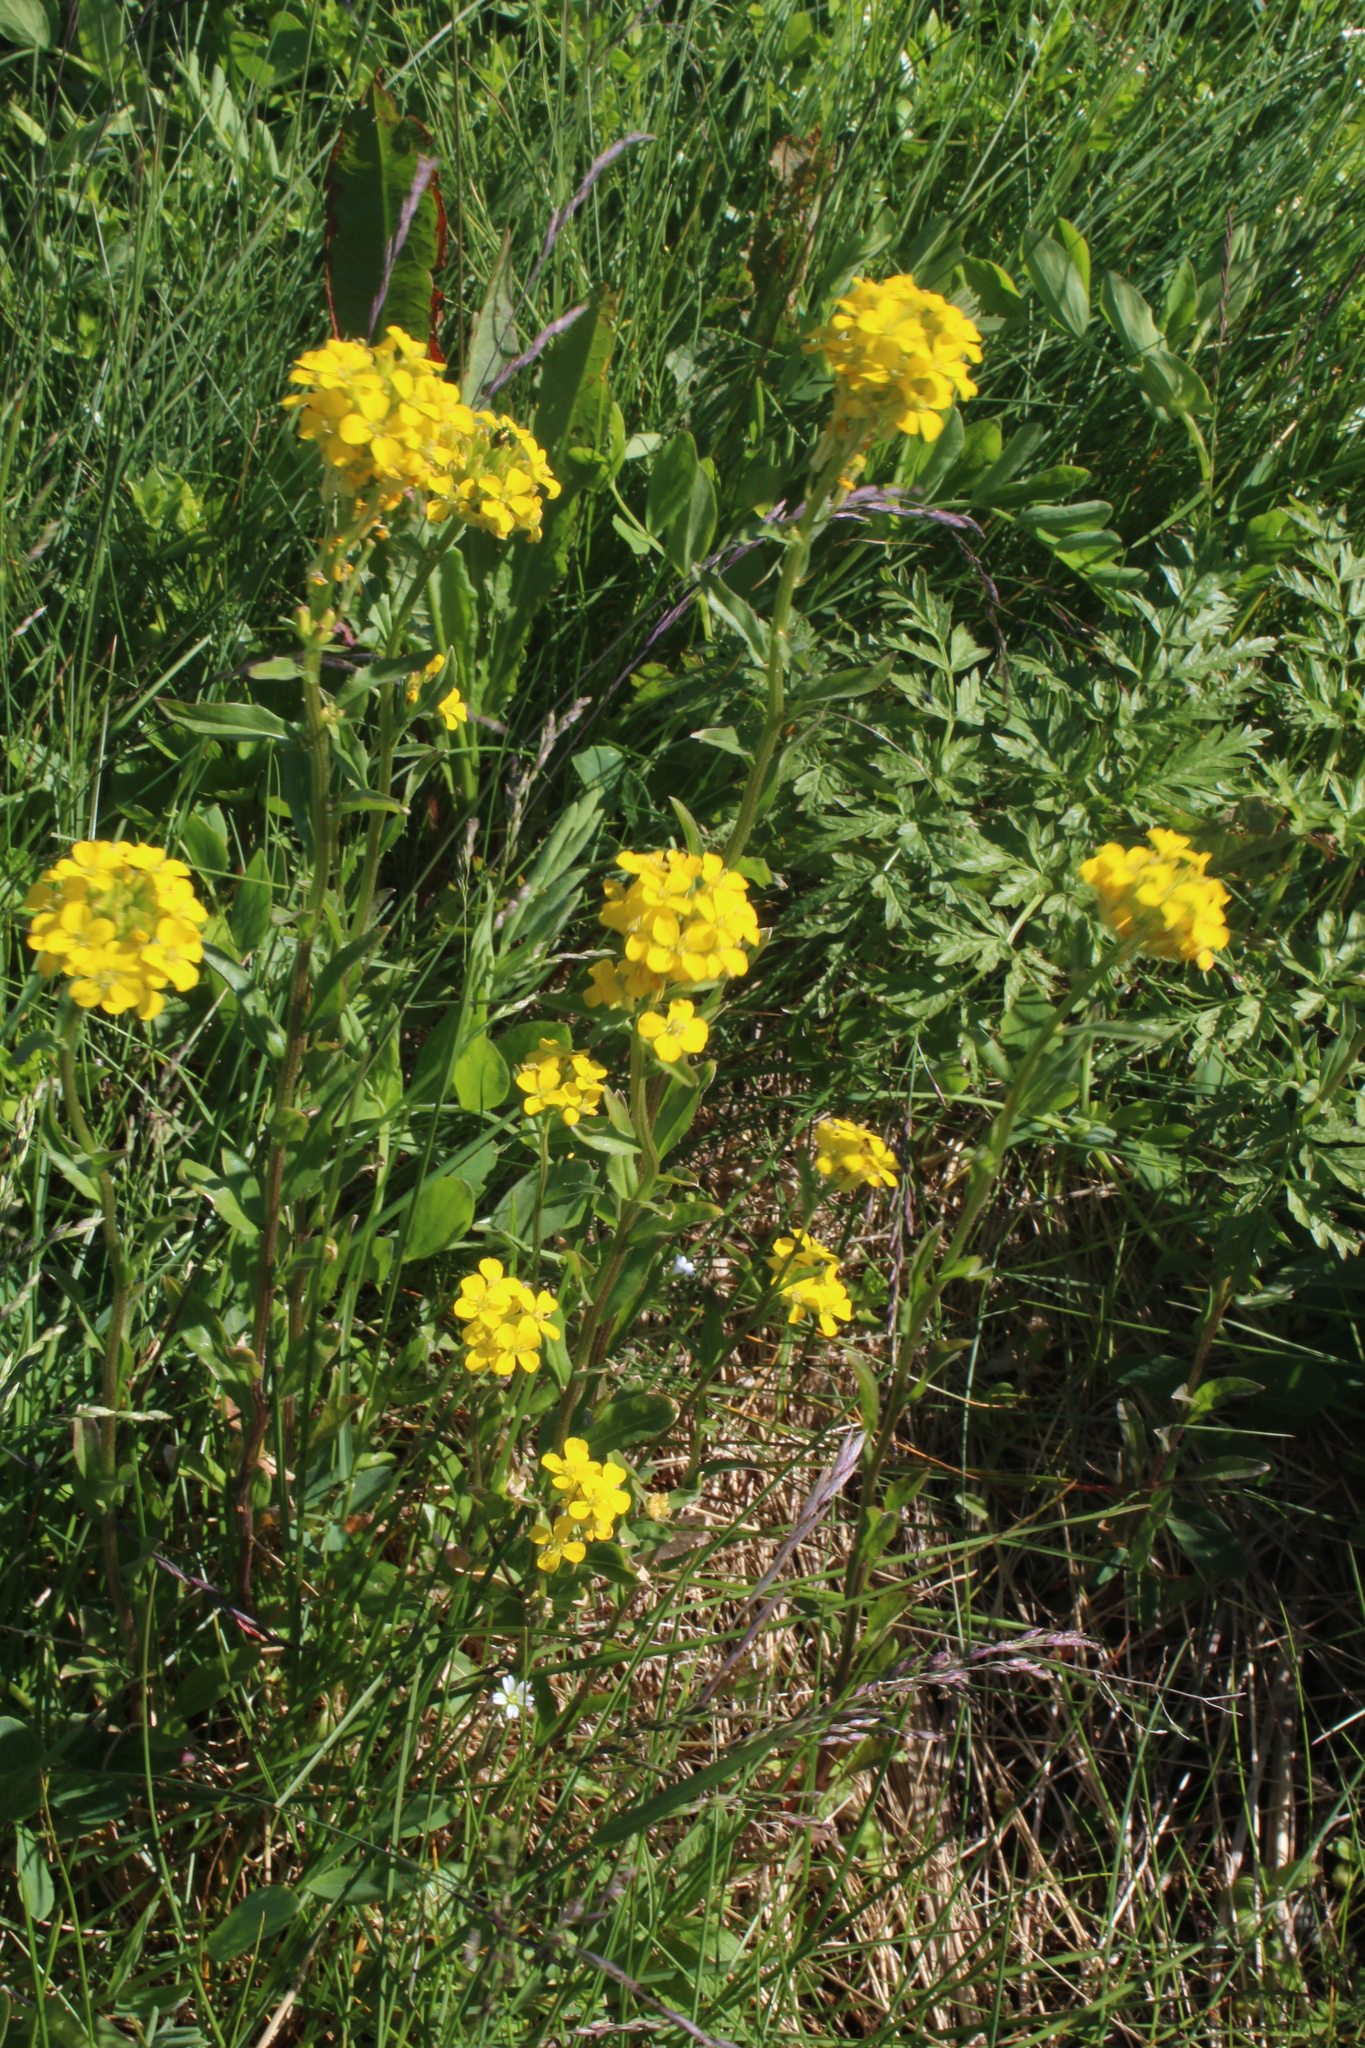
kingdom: Plantae
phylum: Tracheophyta
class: Magnoliopsida
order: Brassicales
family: Brassicaceae
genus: Erysimum
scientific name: Erysimum hieraciifolium
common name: European wallflower
